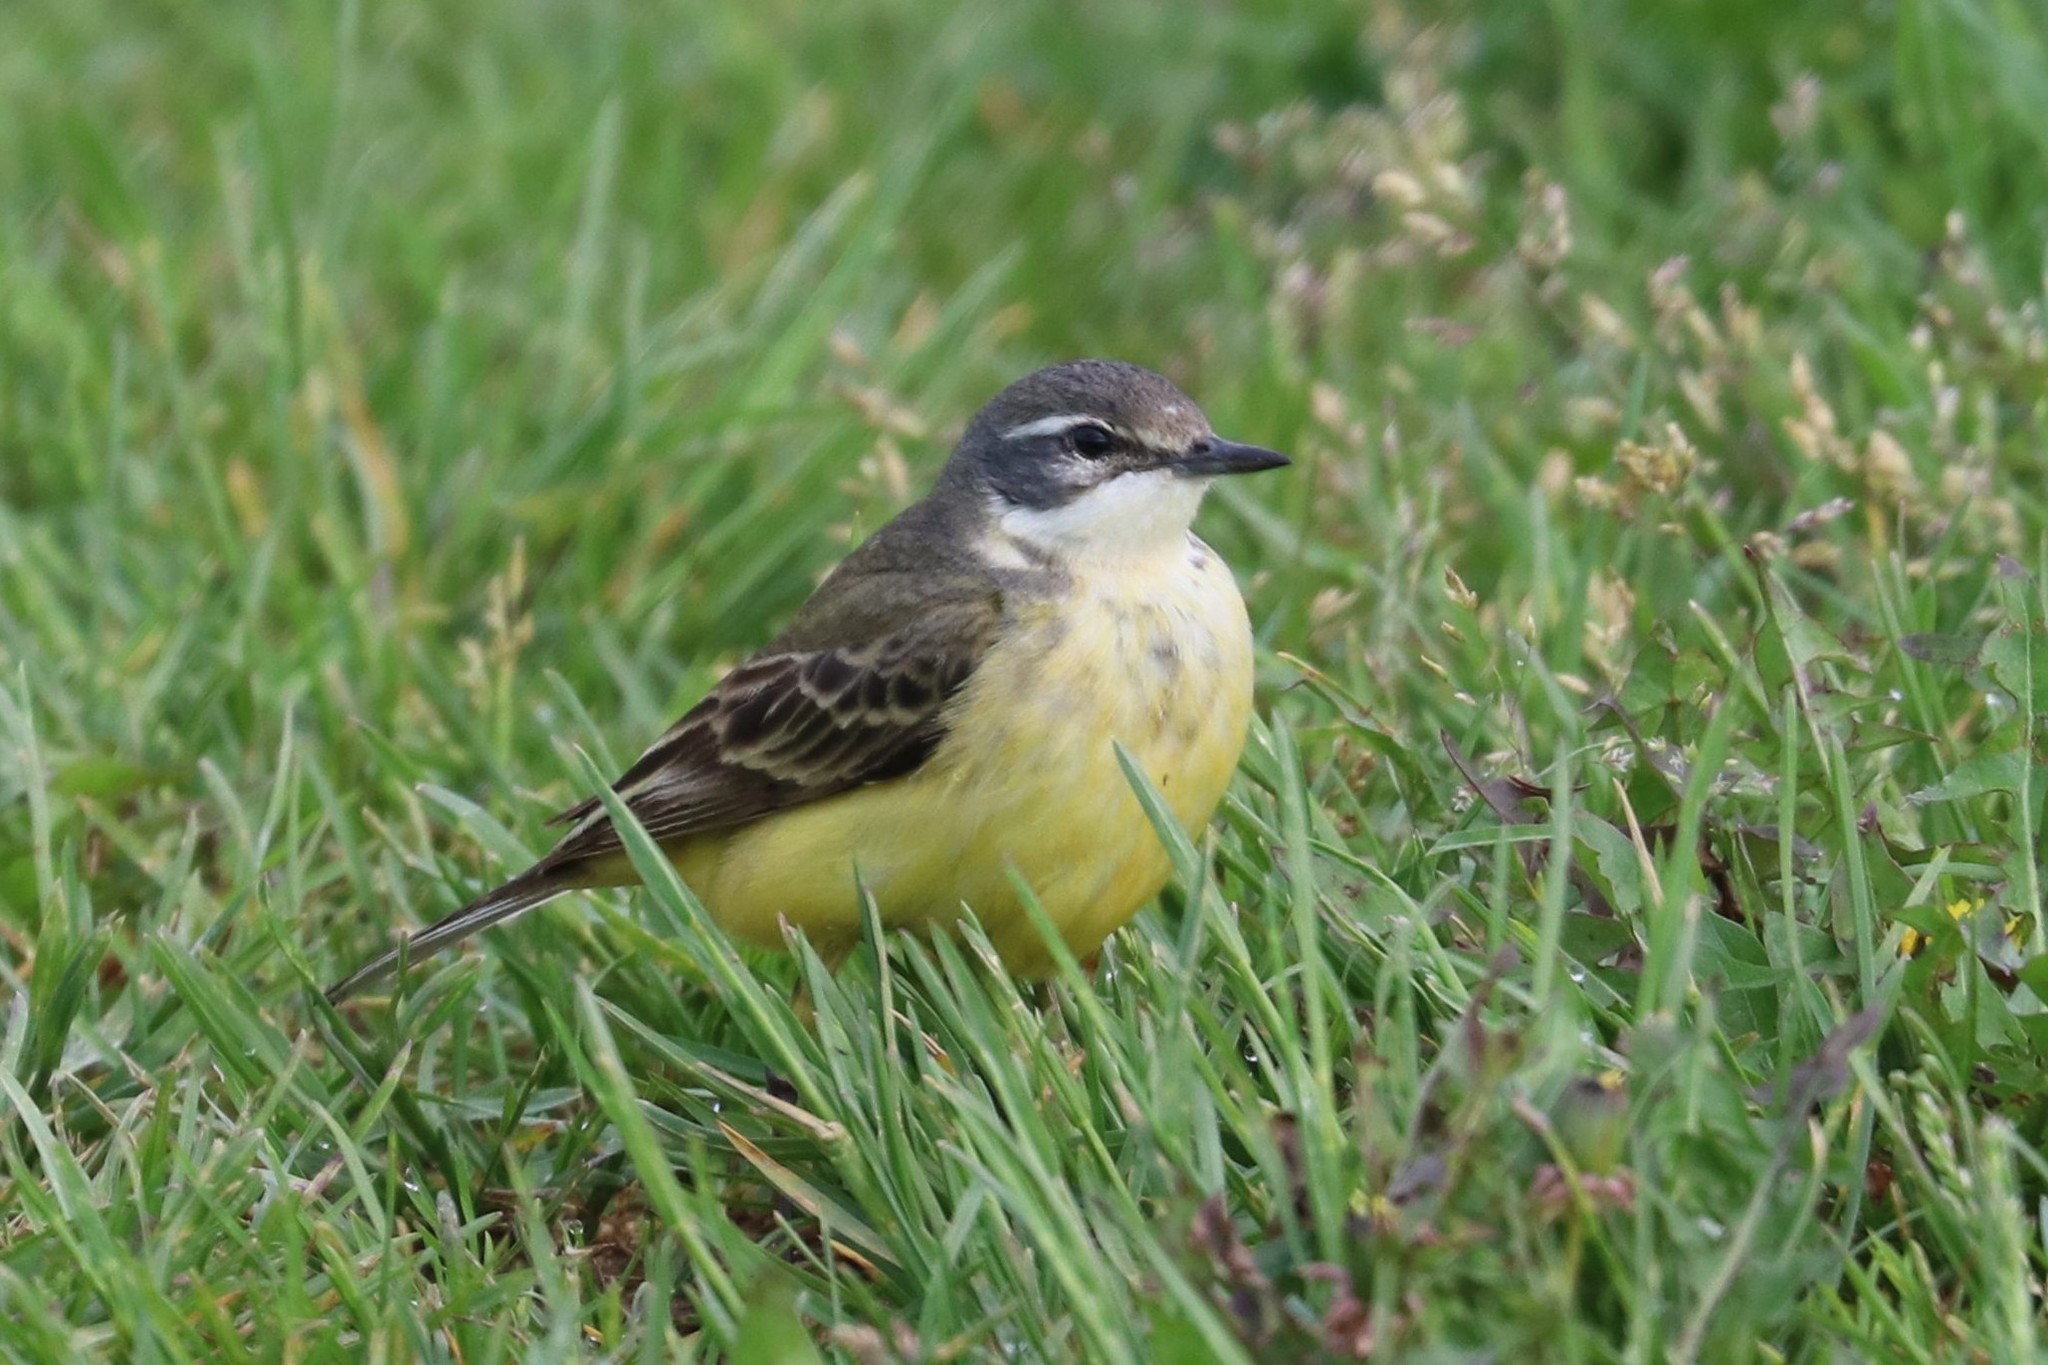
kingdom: Animalia
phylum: Chordata
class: Aves
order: Passeriformes
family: Motacillidae
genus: Motacilla
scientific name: Motacilla flava
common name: Western yellow wagtail
